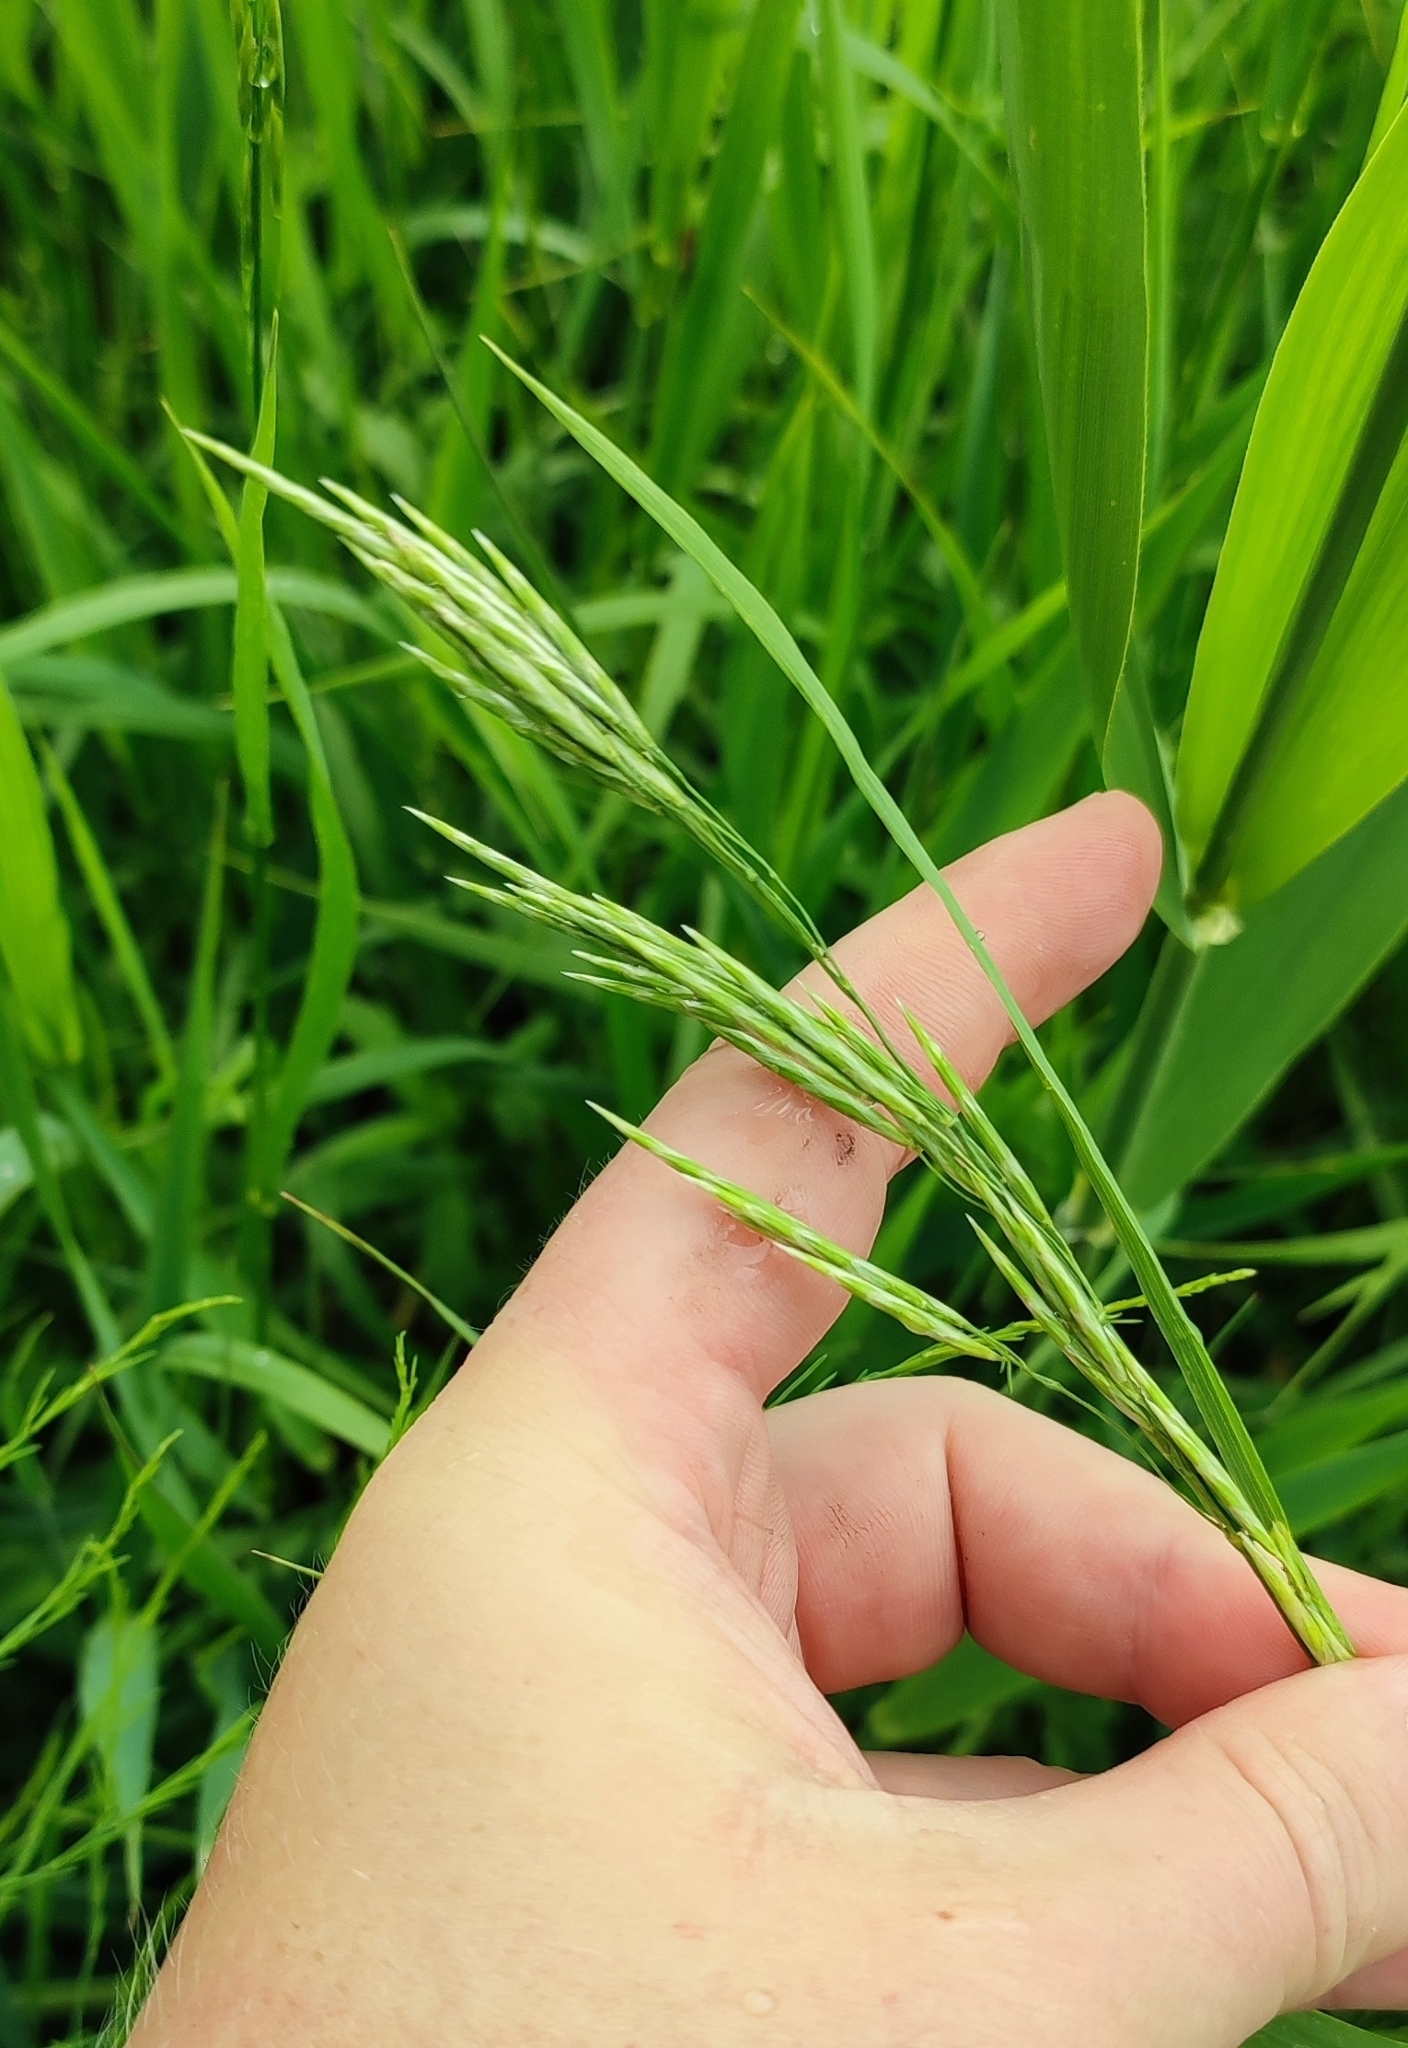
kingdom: Plantae
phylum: Tracheophyta
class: Liliopsida
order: Poales
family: Poaceae
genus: Bromus
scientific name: Bromus inermis
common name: Smooth brome
